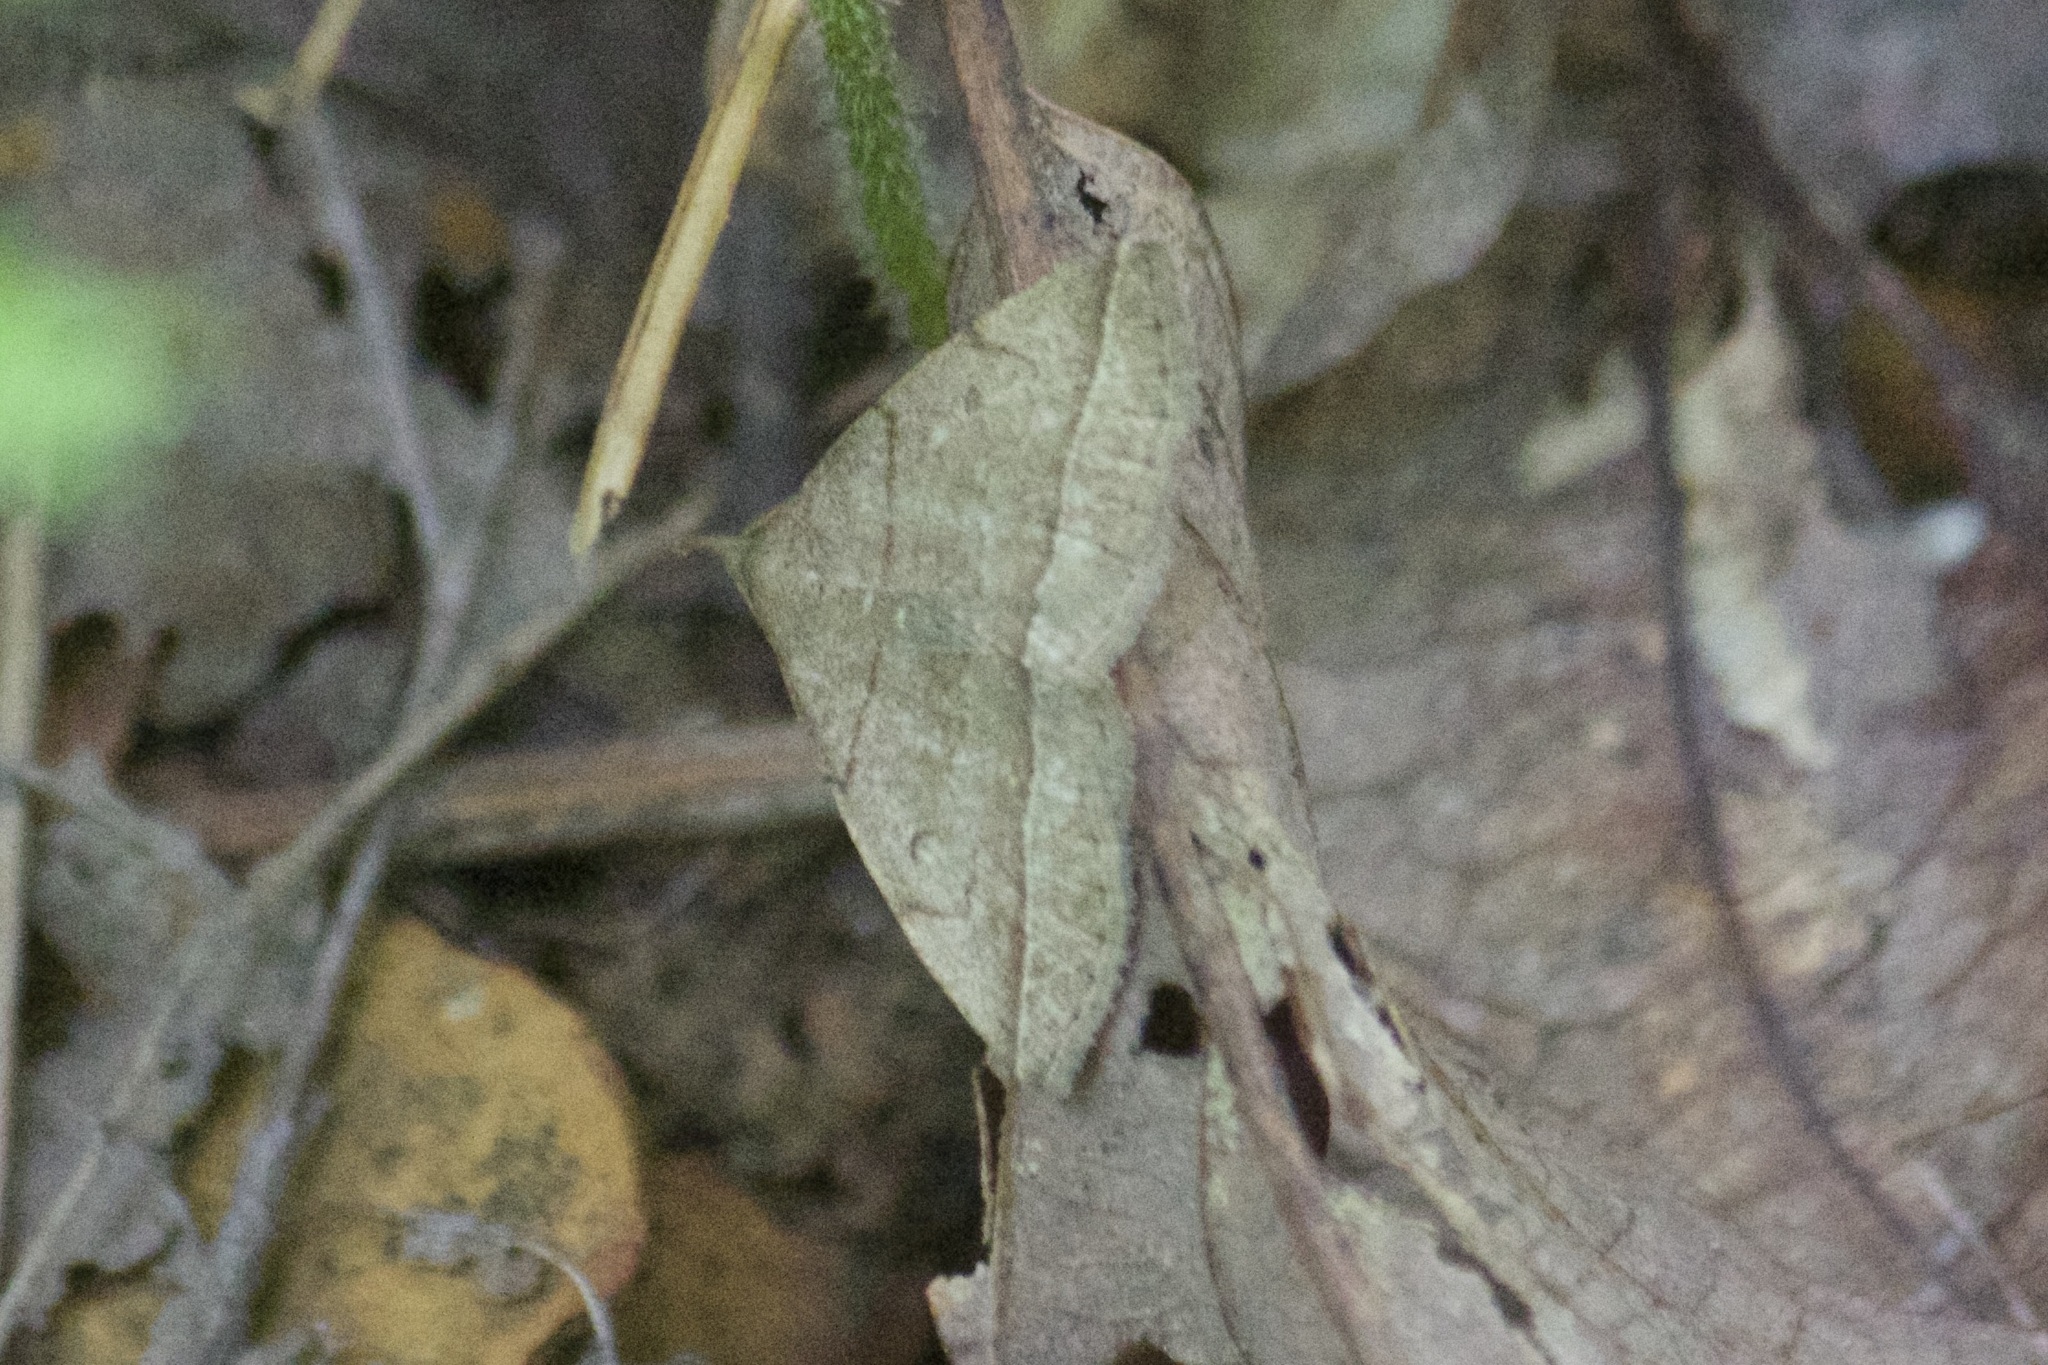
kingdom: Animalia
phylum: Arthropoda
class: Insecta
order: Lepidoptera
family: Erebidae
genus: Zanclognatha
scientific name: Zanclognatha cruralis
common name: Early fan-foot
